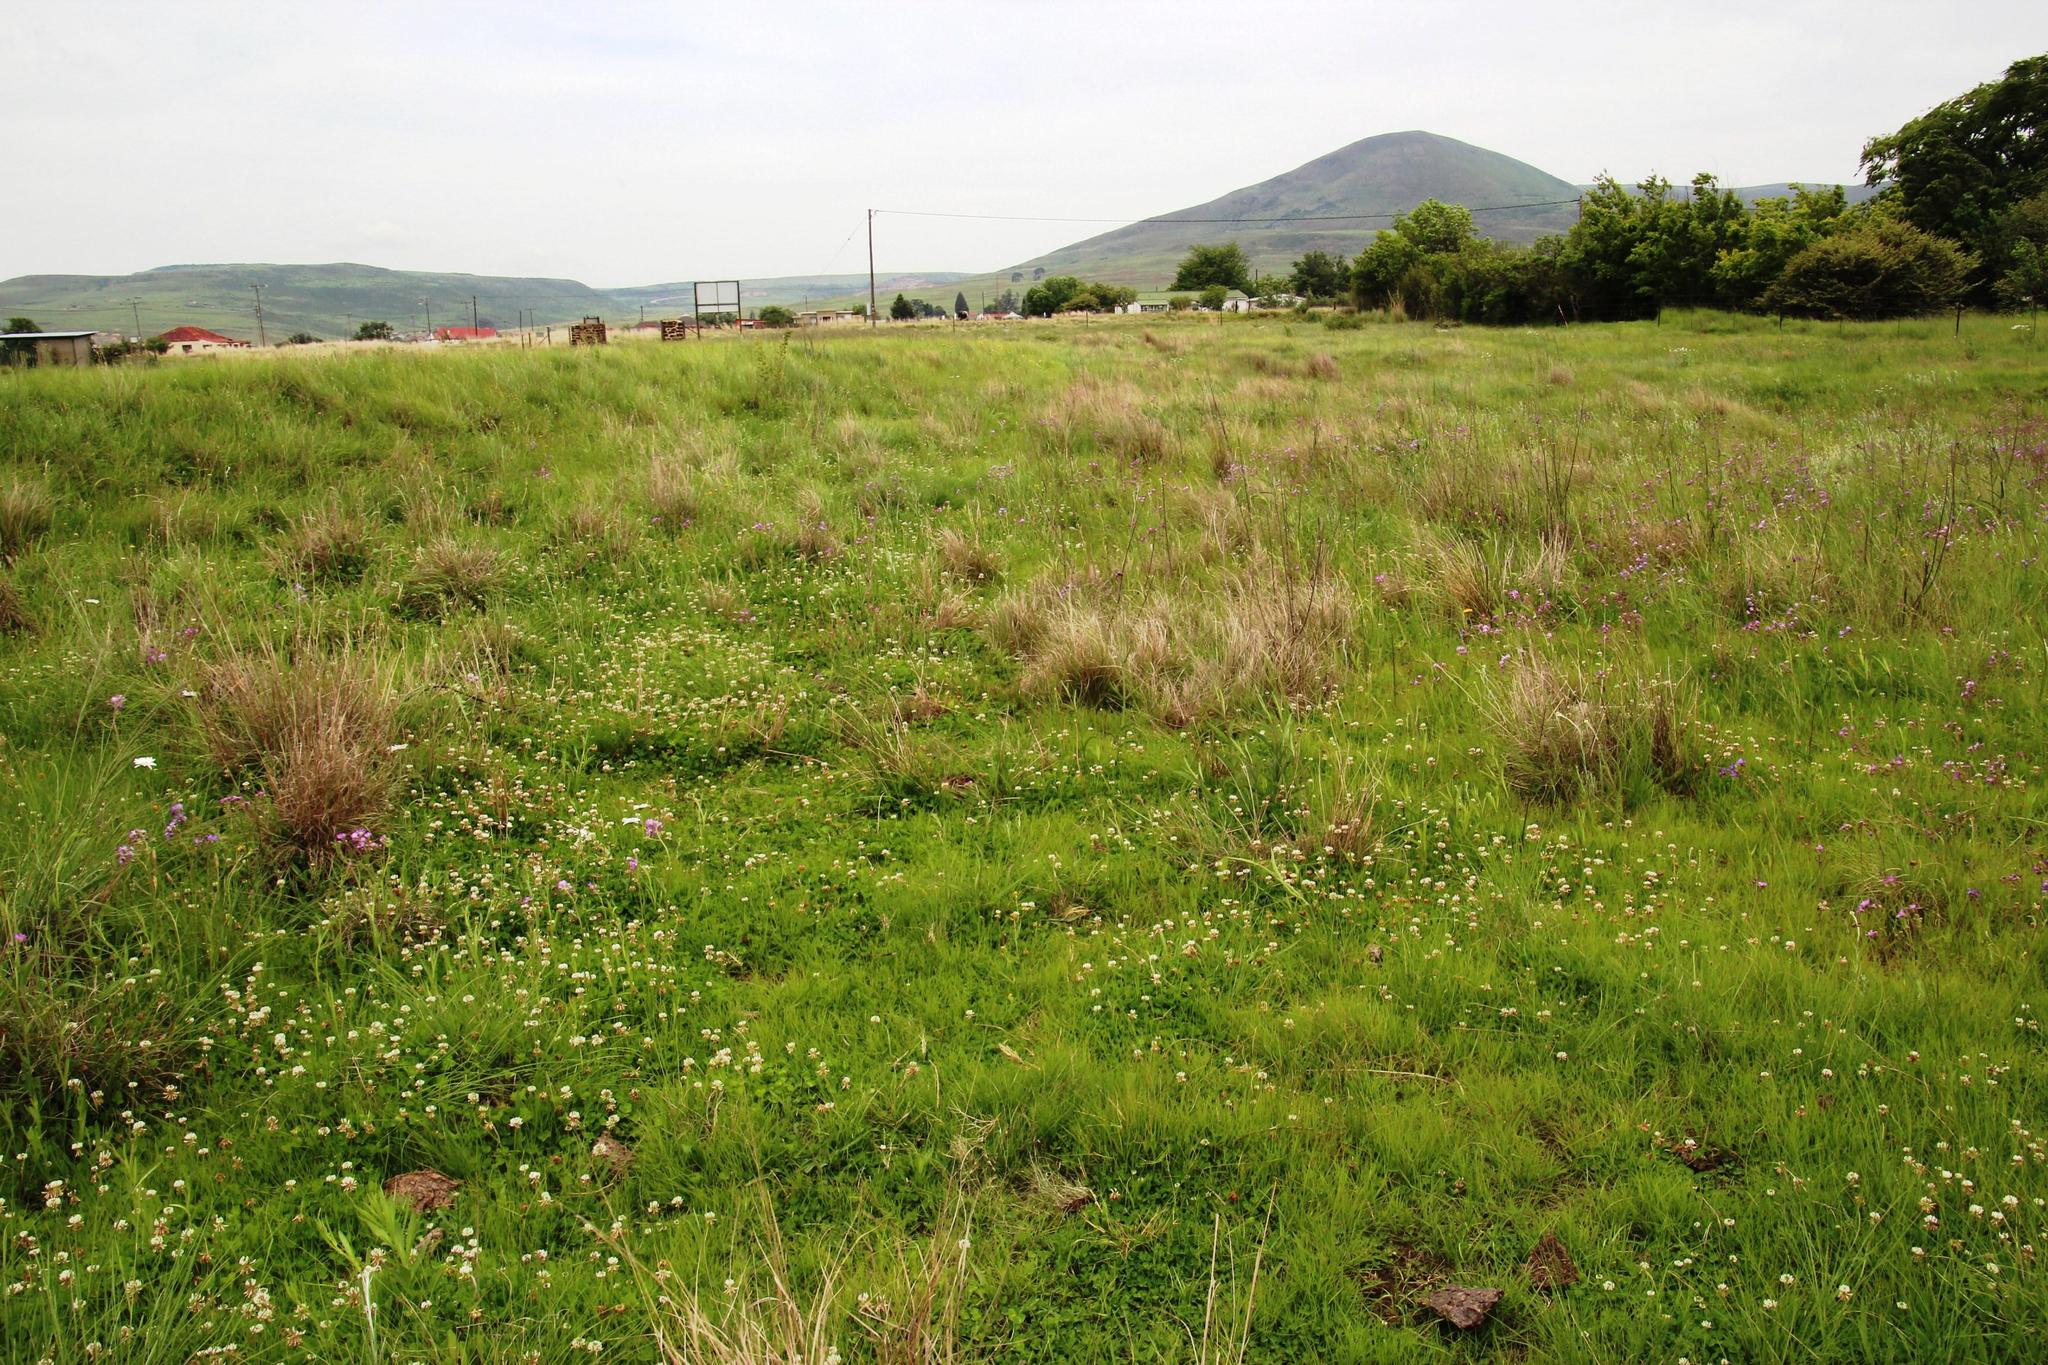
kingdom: Plantae
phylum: Tracheophyta
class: Magnoliopsida
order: Fabales
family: Fabaceae
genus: Trifolium
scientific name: Trifolium repens
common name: White clover
